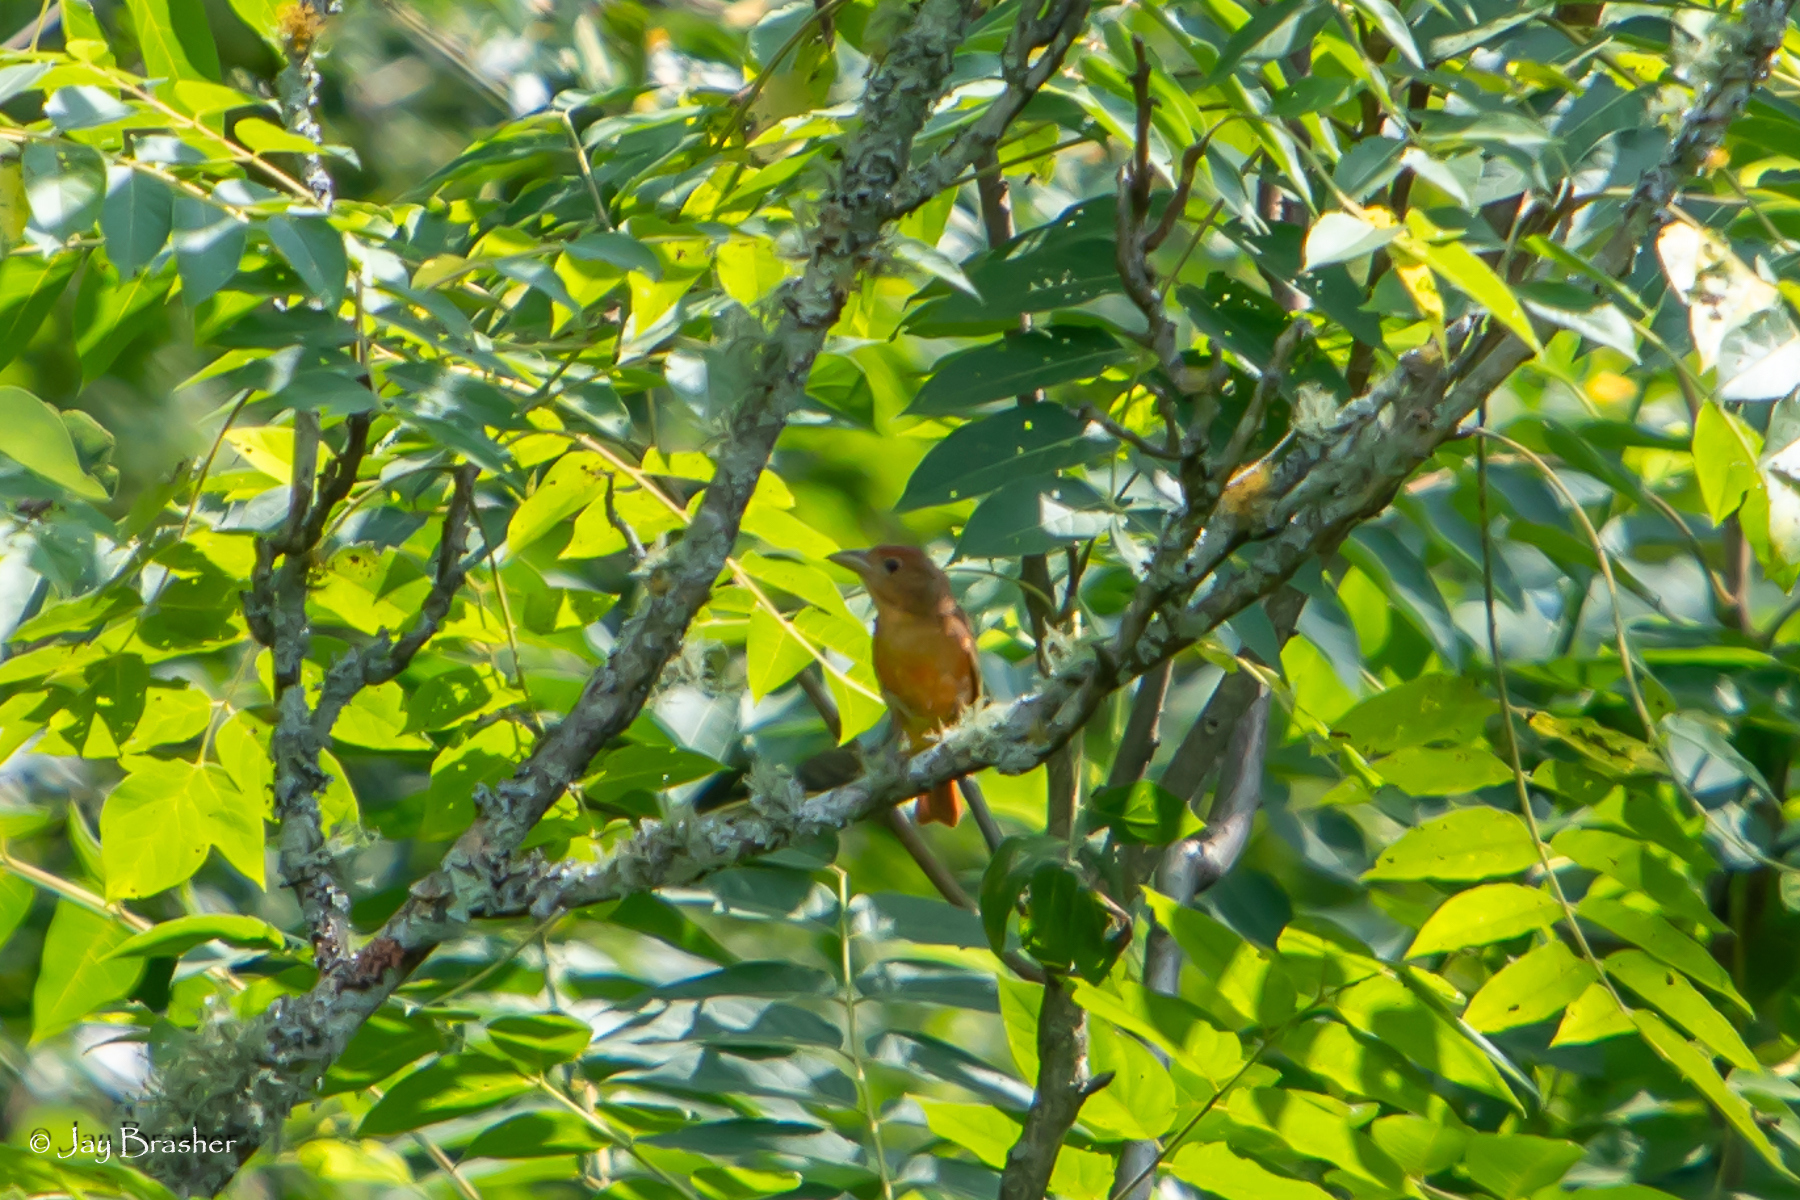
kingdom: Animalia
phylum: Chordata
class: Aves
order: Passeriformes
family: Cardinalidae
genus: Piranga
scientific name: Piranga rubra
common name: Summer tanager
